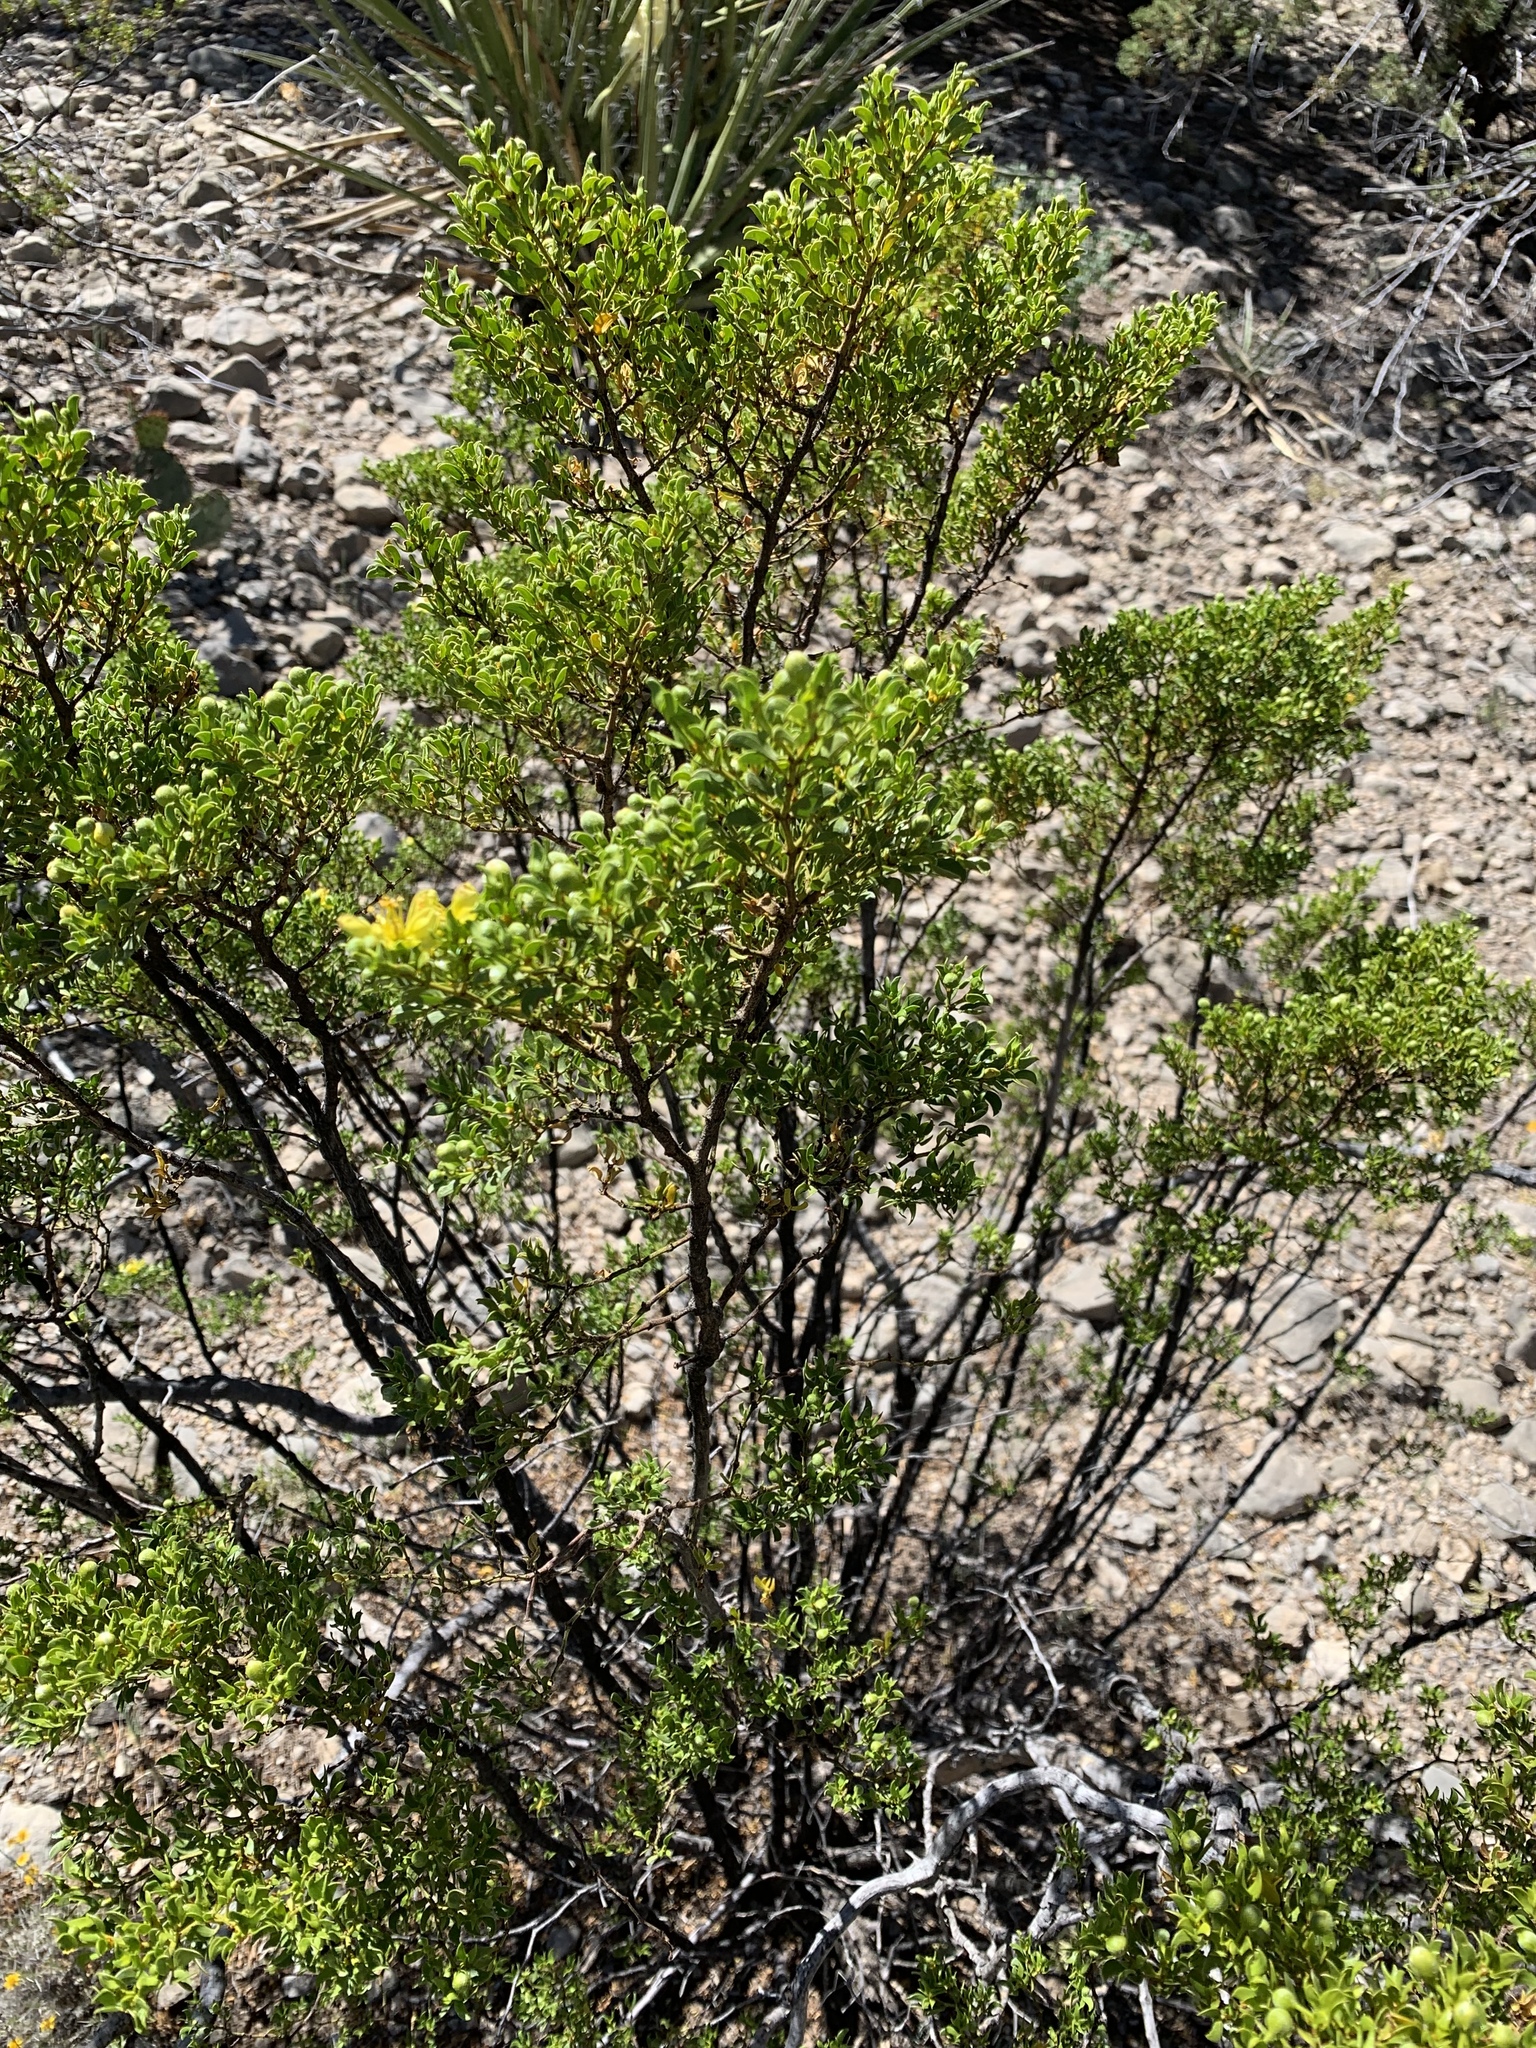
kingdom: Plantae
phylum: Tracheophyta
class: Magnoliopsida
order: Zygophyllales
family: Zygophyllaceae
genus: Larrea
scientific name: Larrea tridentata
